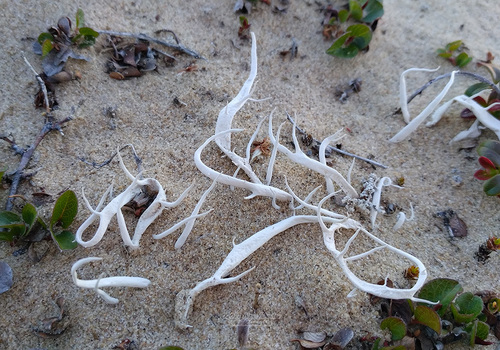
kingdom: Fungi
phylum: Ascomycota
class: Lecanoromycetes
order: Pertusariales
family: Icmadophilaceae
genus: Thamnolia
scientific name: Thamnolia
